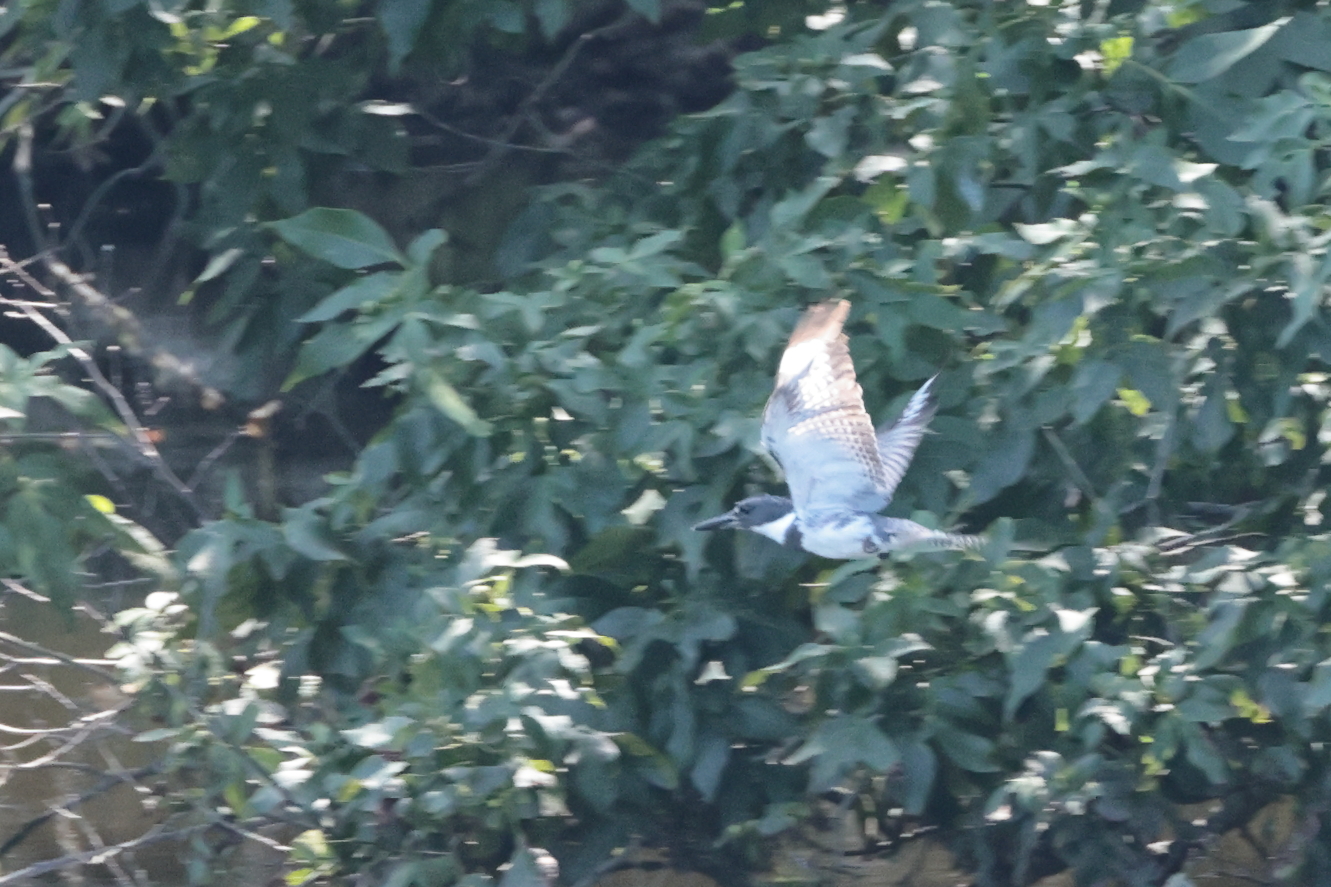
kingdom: Animalia
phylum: Chordata
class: Aves
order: Coraciiformes
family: Alcedinidae
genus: Megaceryle
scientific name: Megaceryle alcyon
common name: Belted kingfisher
